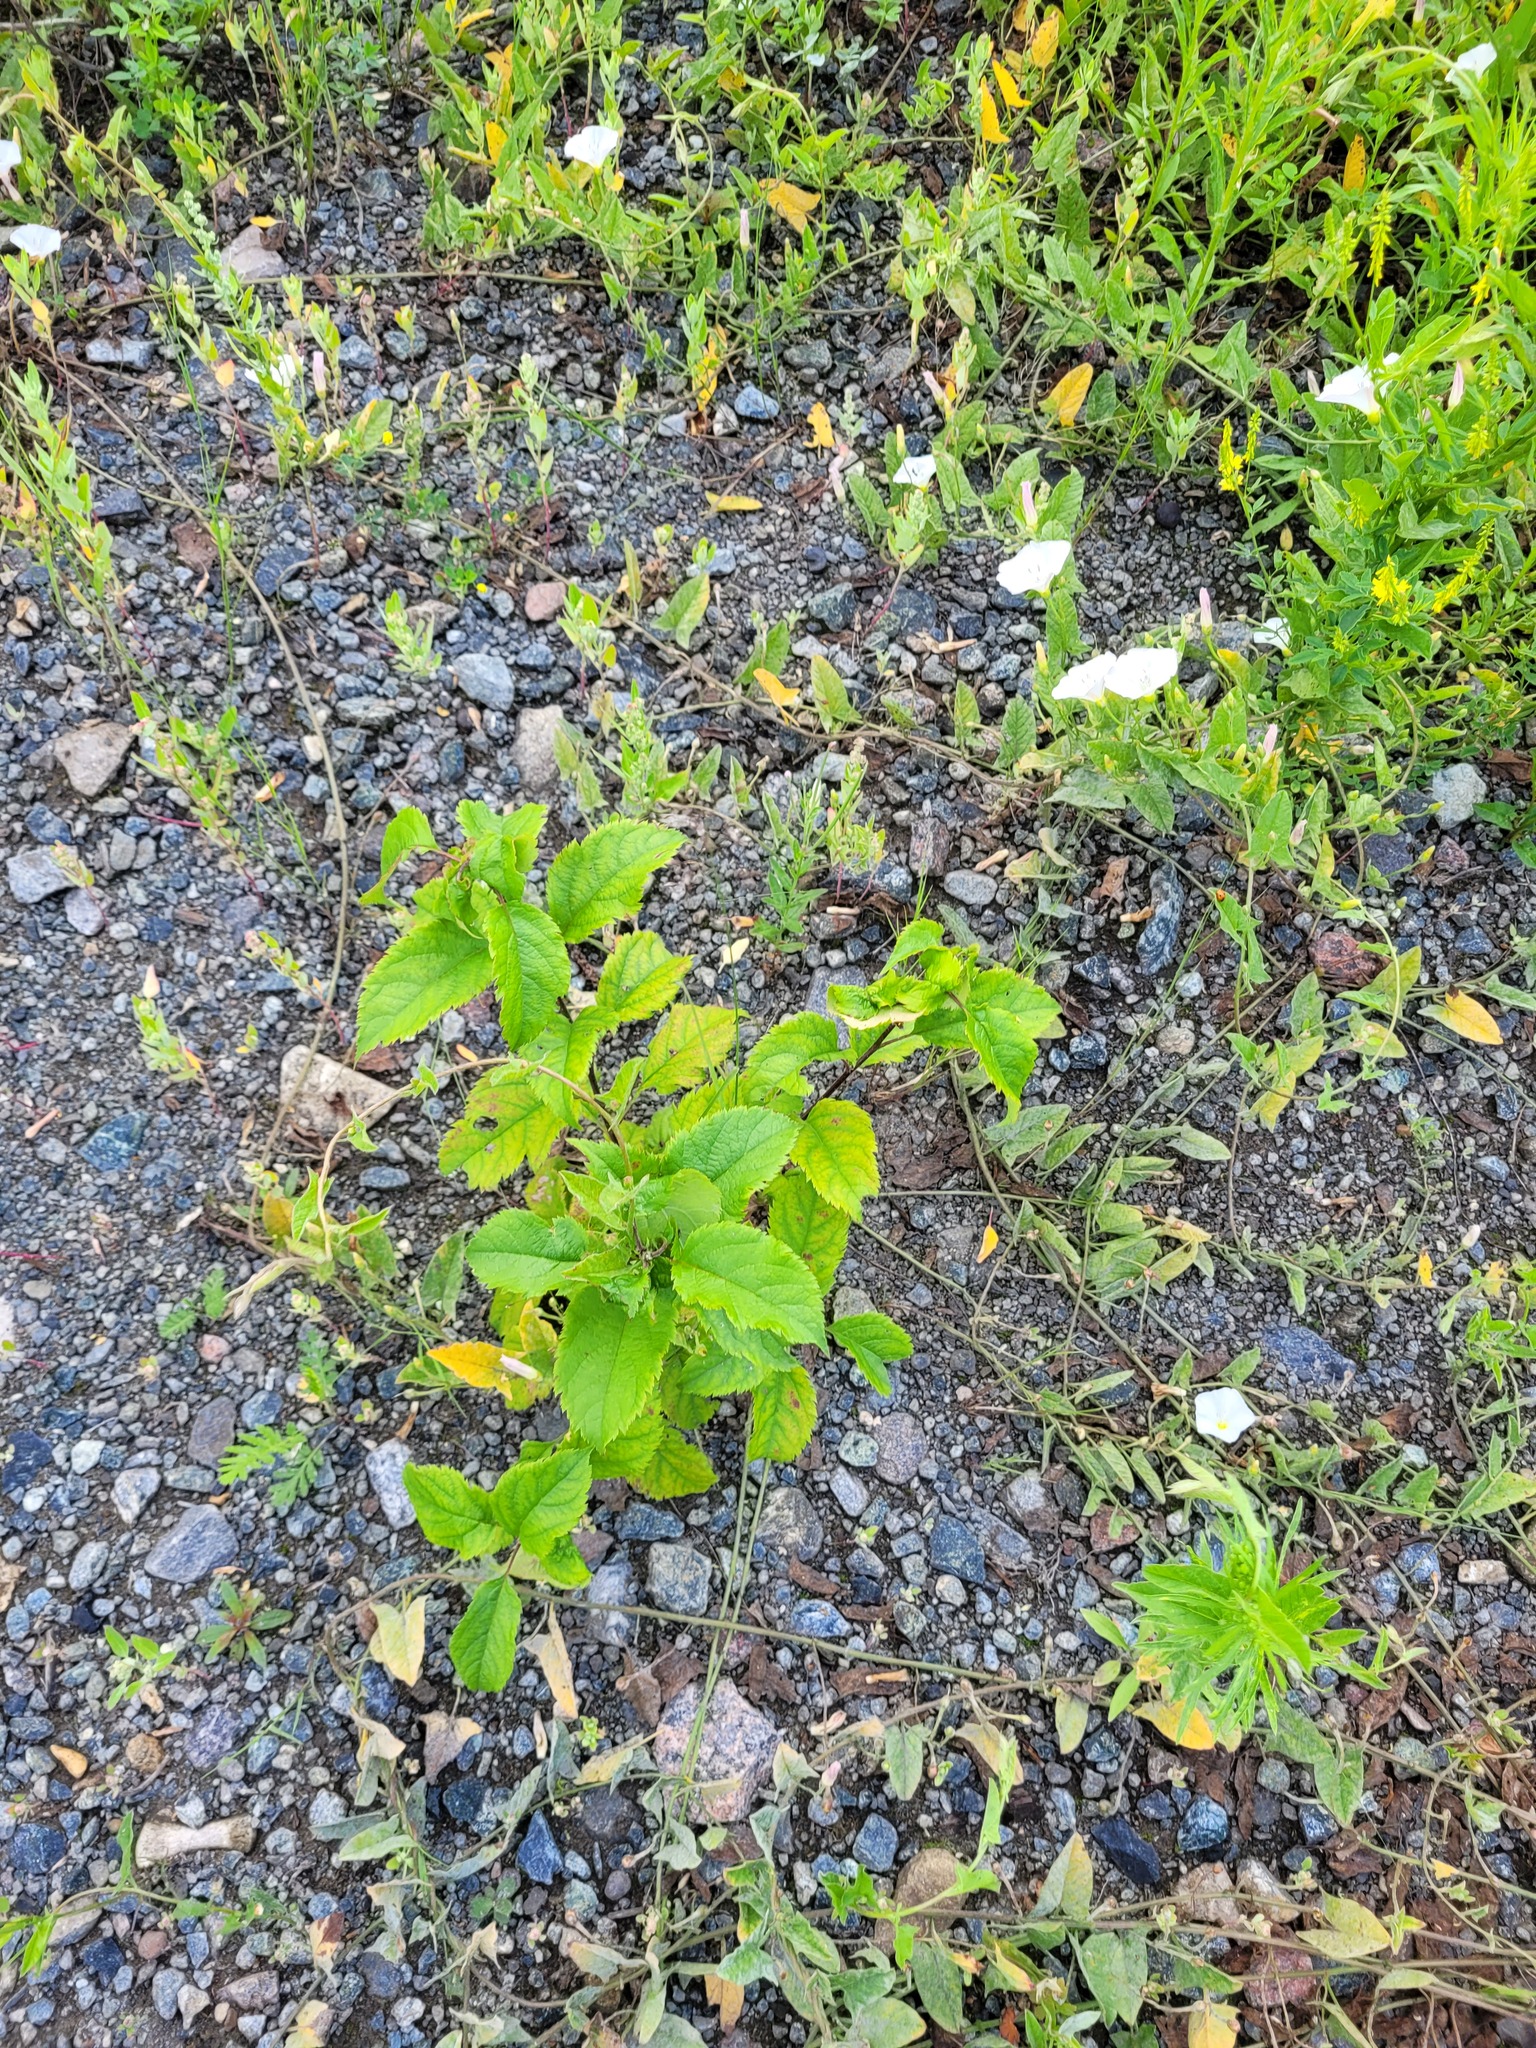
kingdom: Plantae
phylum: Tracheophyta
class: Magnoliopsida
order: Rosales
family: Rosaceae
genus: Malus
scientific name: Malus domestica
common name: Apple
